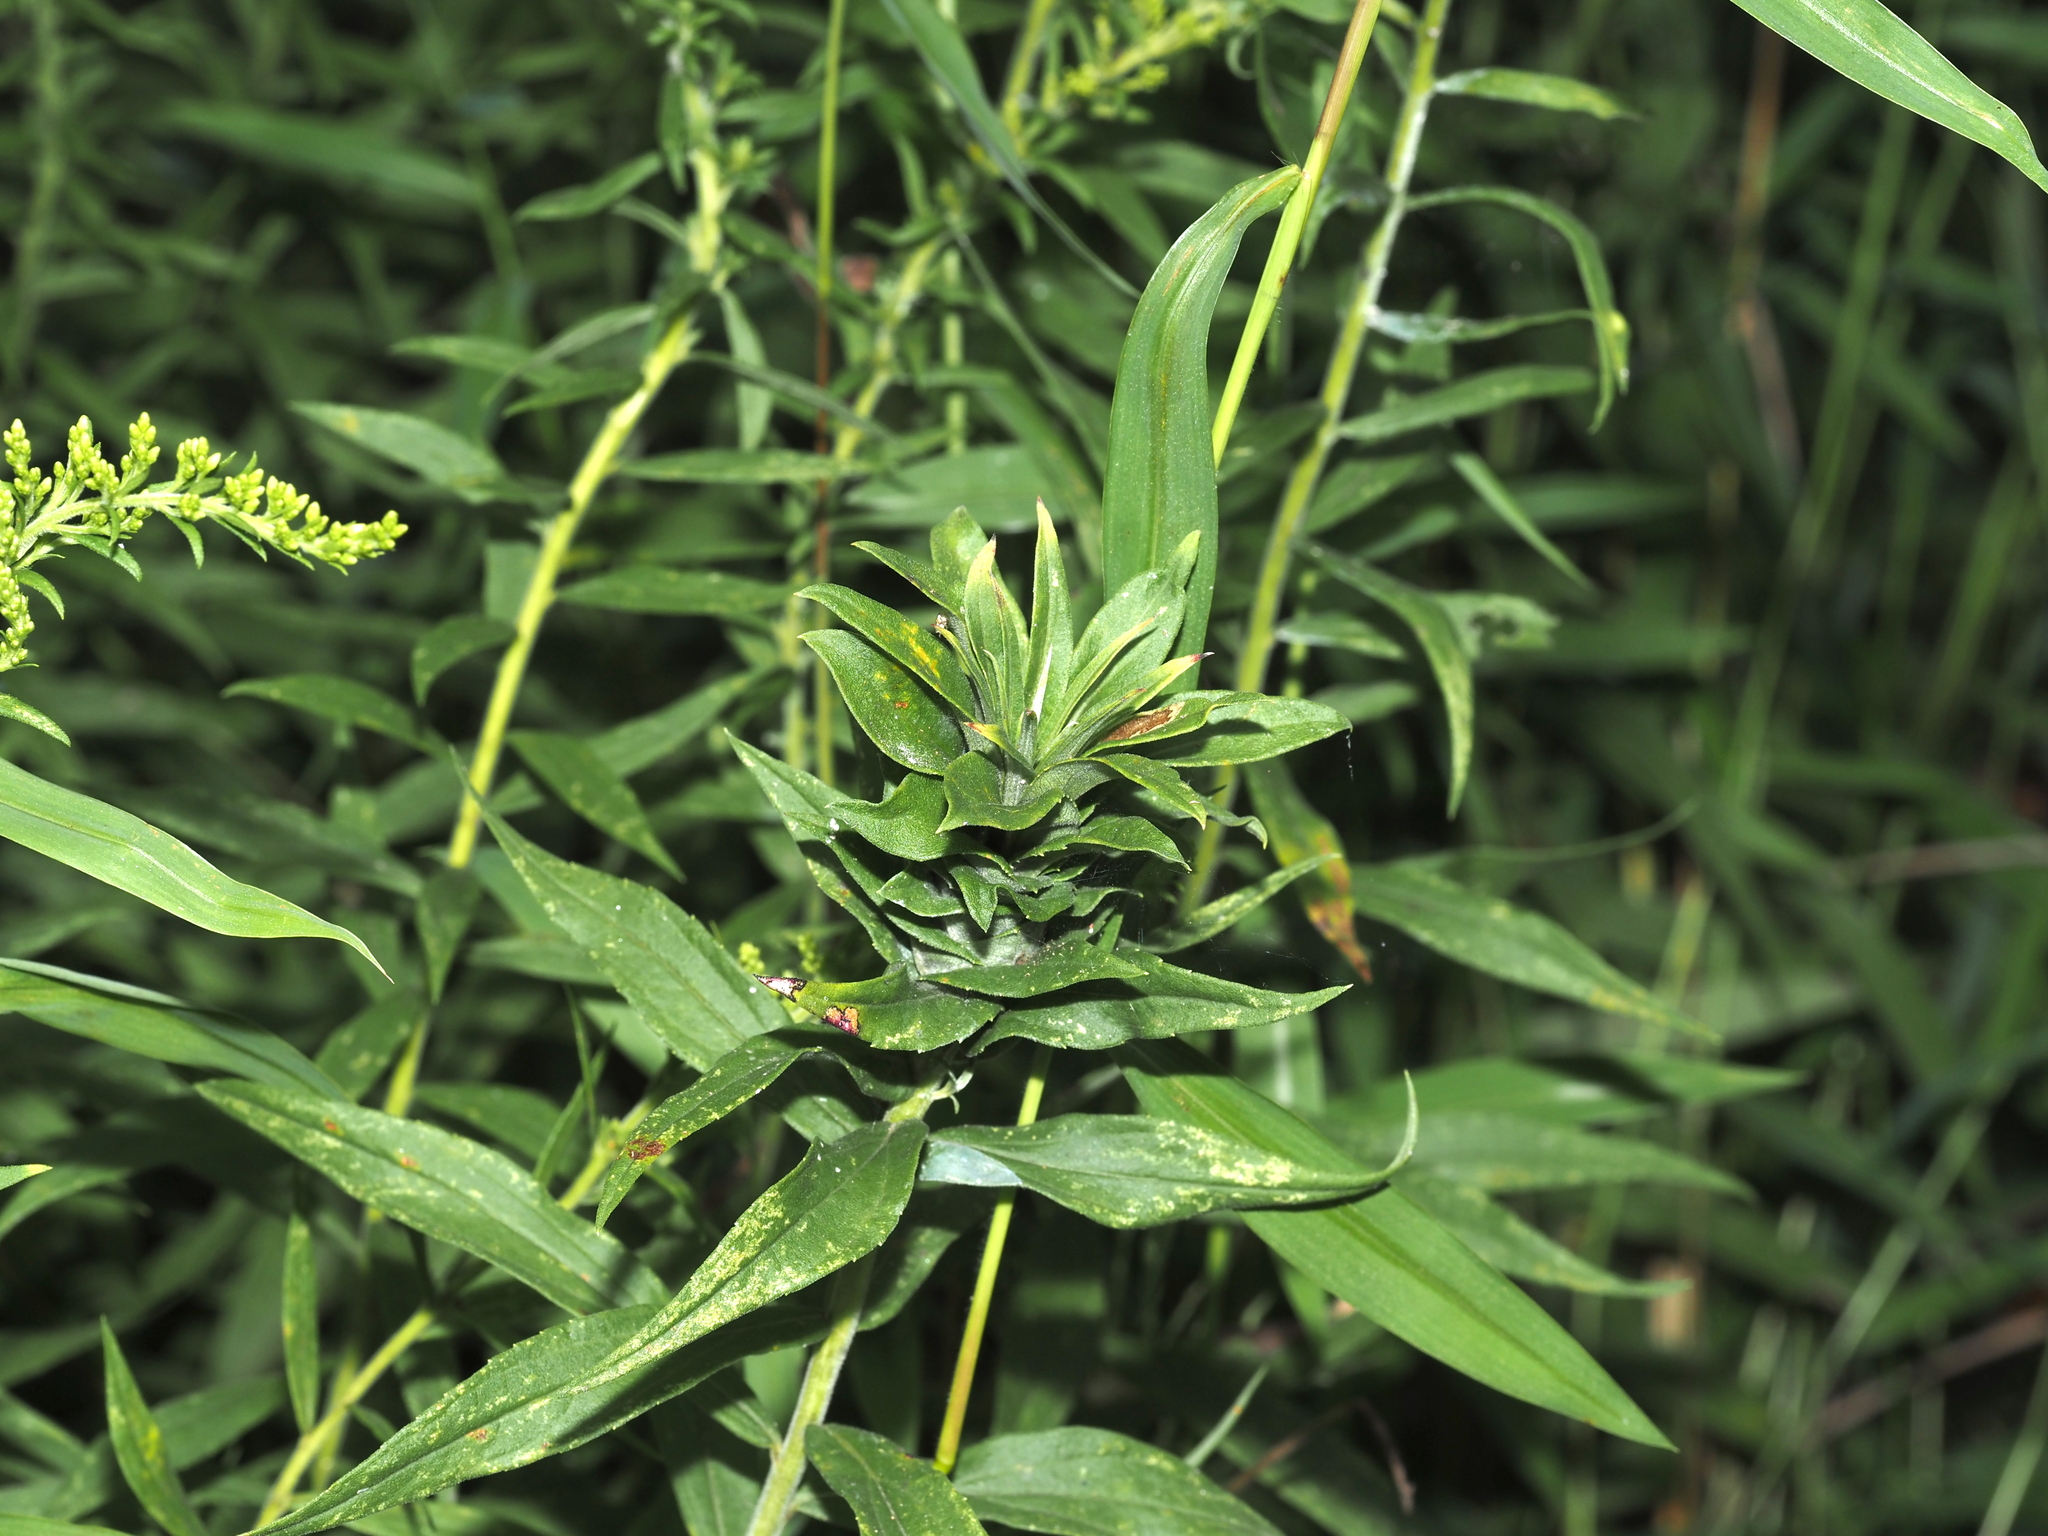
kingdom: Animalia
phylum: Arthropoda
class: Insecta
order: Diptera
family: Cecidomyiidae
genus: Rhopalomyia
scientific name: Rhopalomyia solidaginis
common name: Goldenrod bunch gall midge
